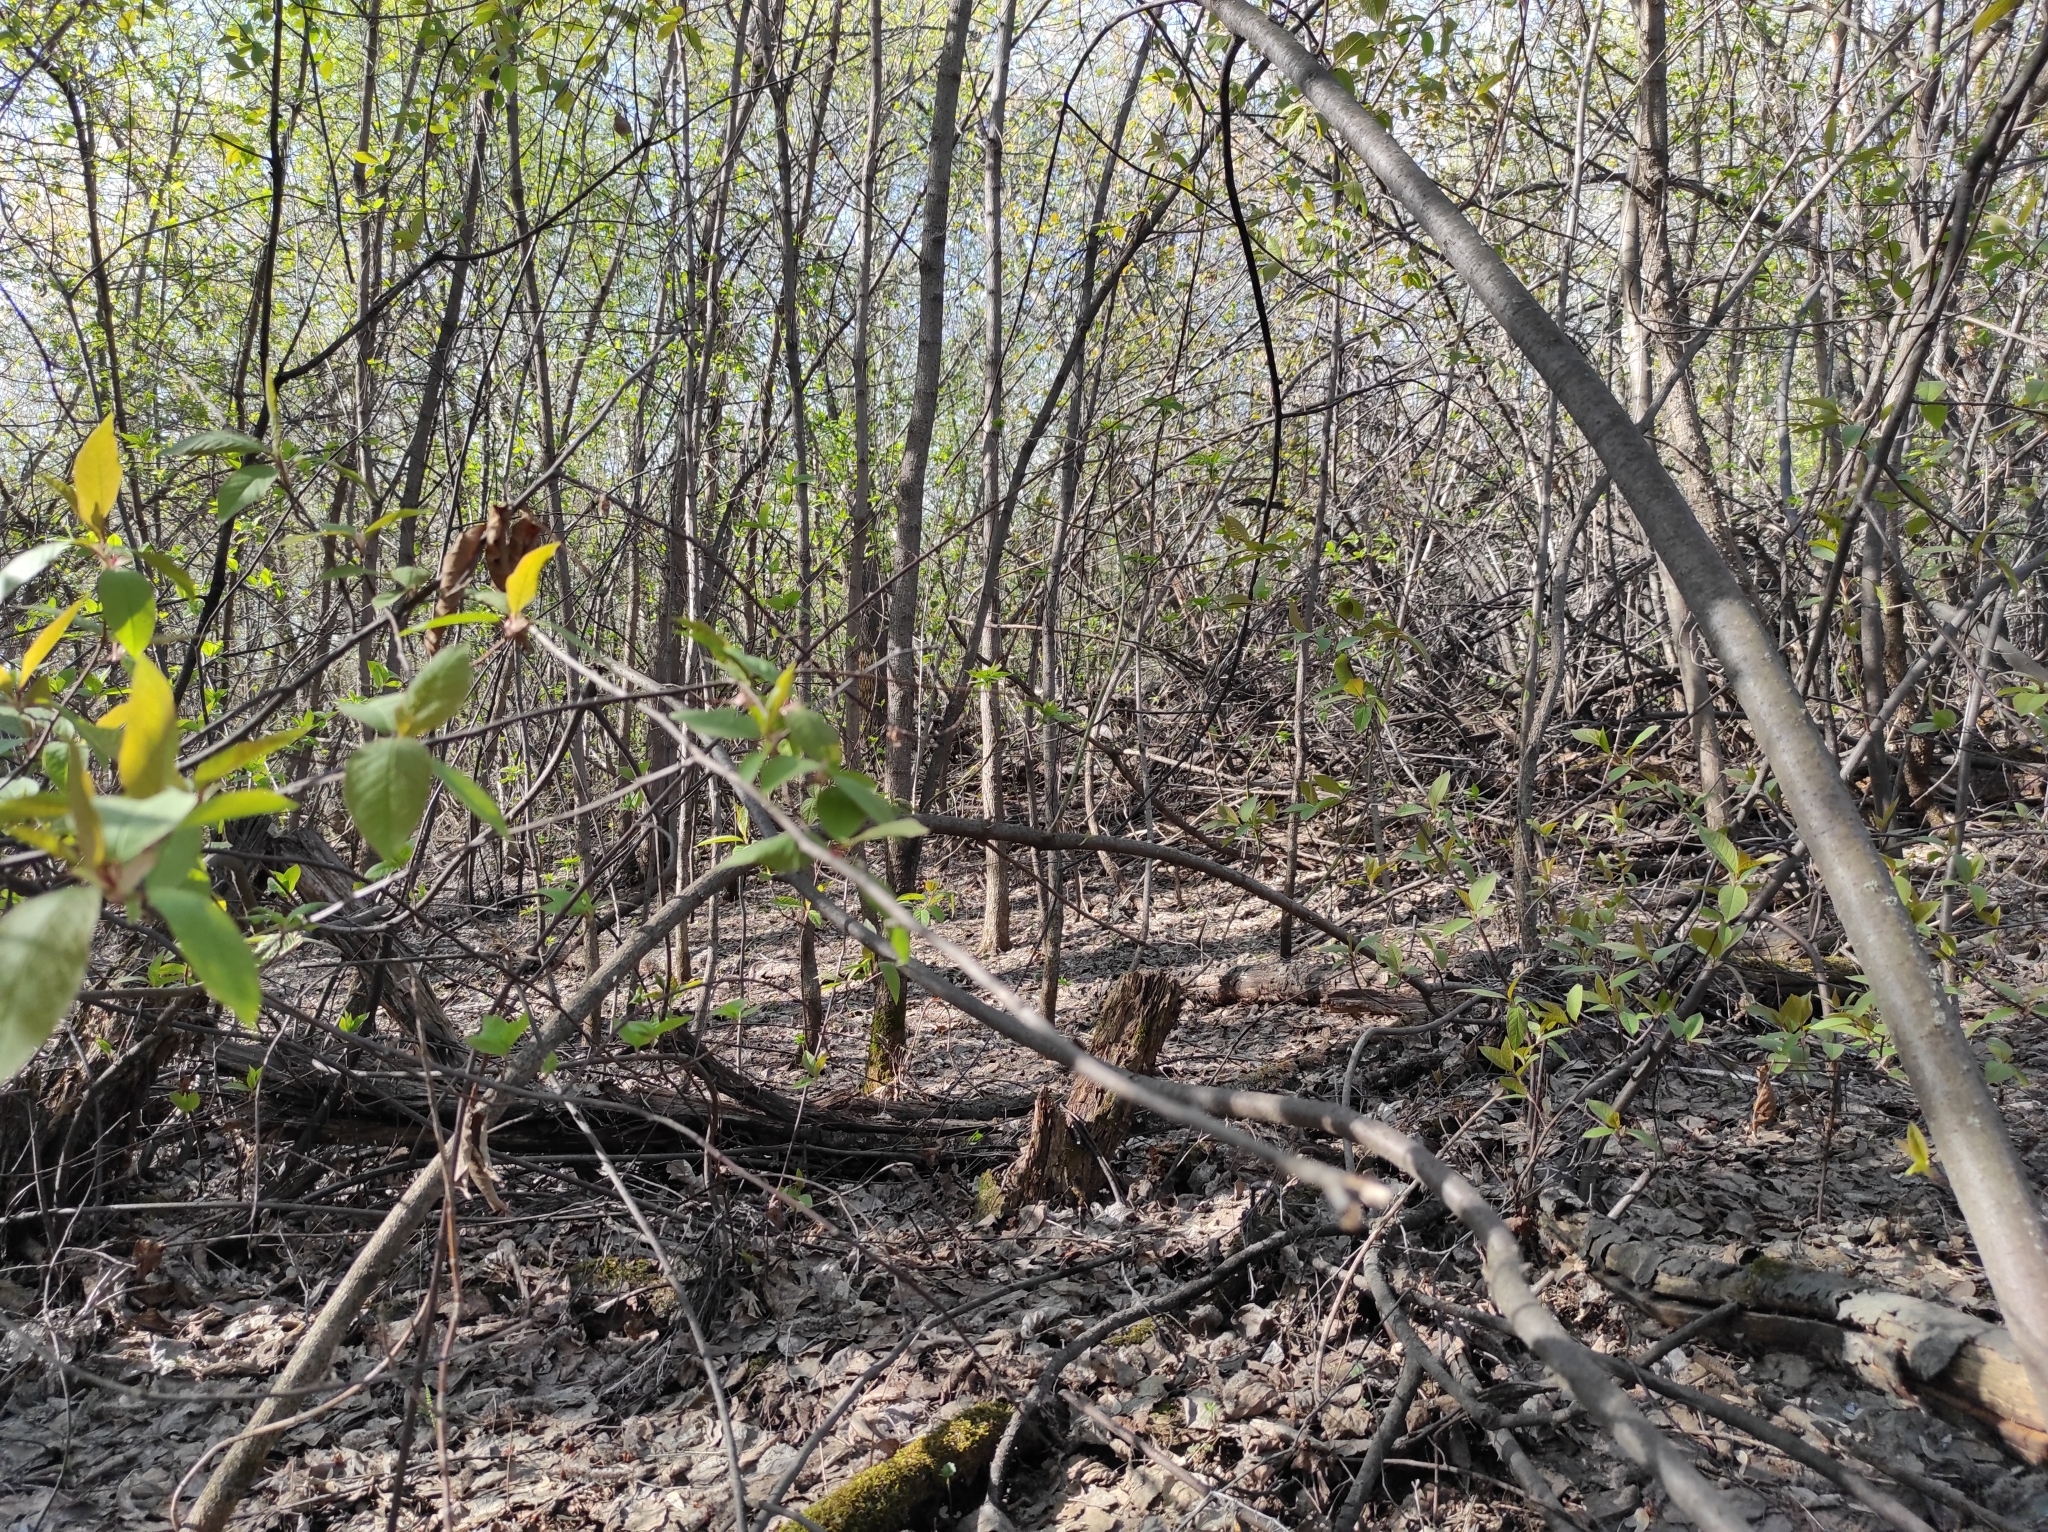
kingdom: Fungi
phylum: Ascomycota
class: Pezizomycetes
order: Pezizales
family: Morchellaceae
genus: Verpa
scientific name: Verpa bohemica
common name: Wrinkled thimble morel
